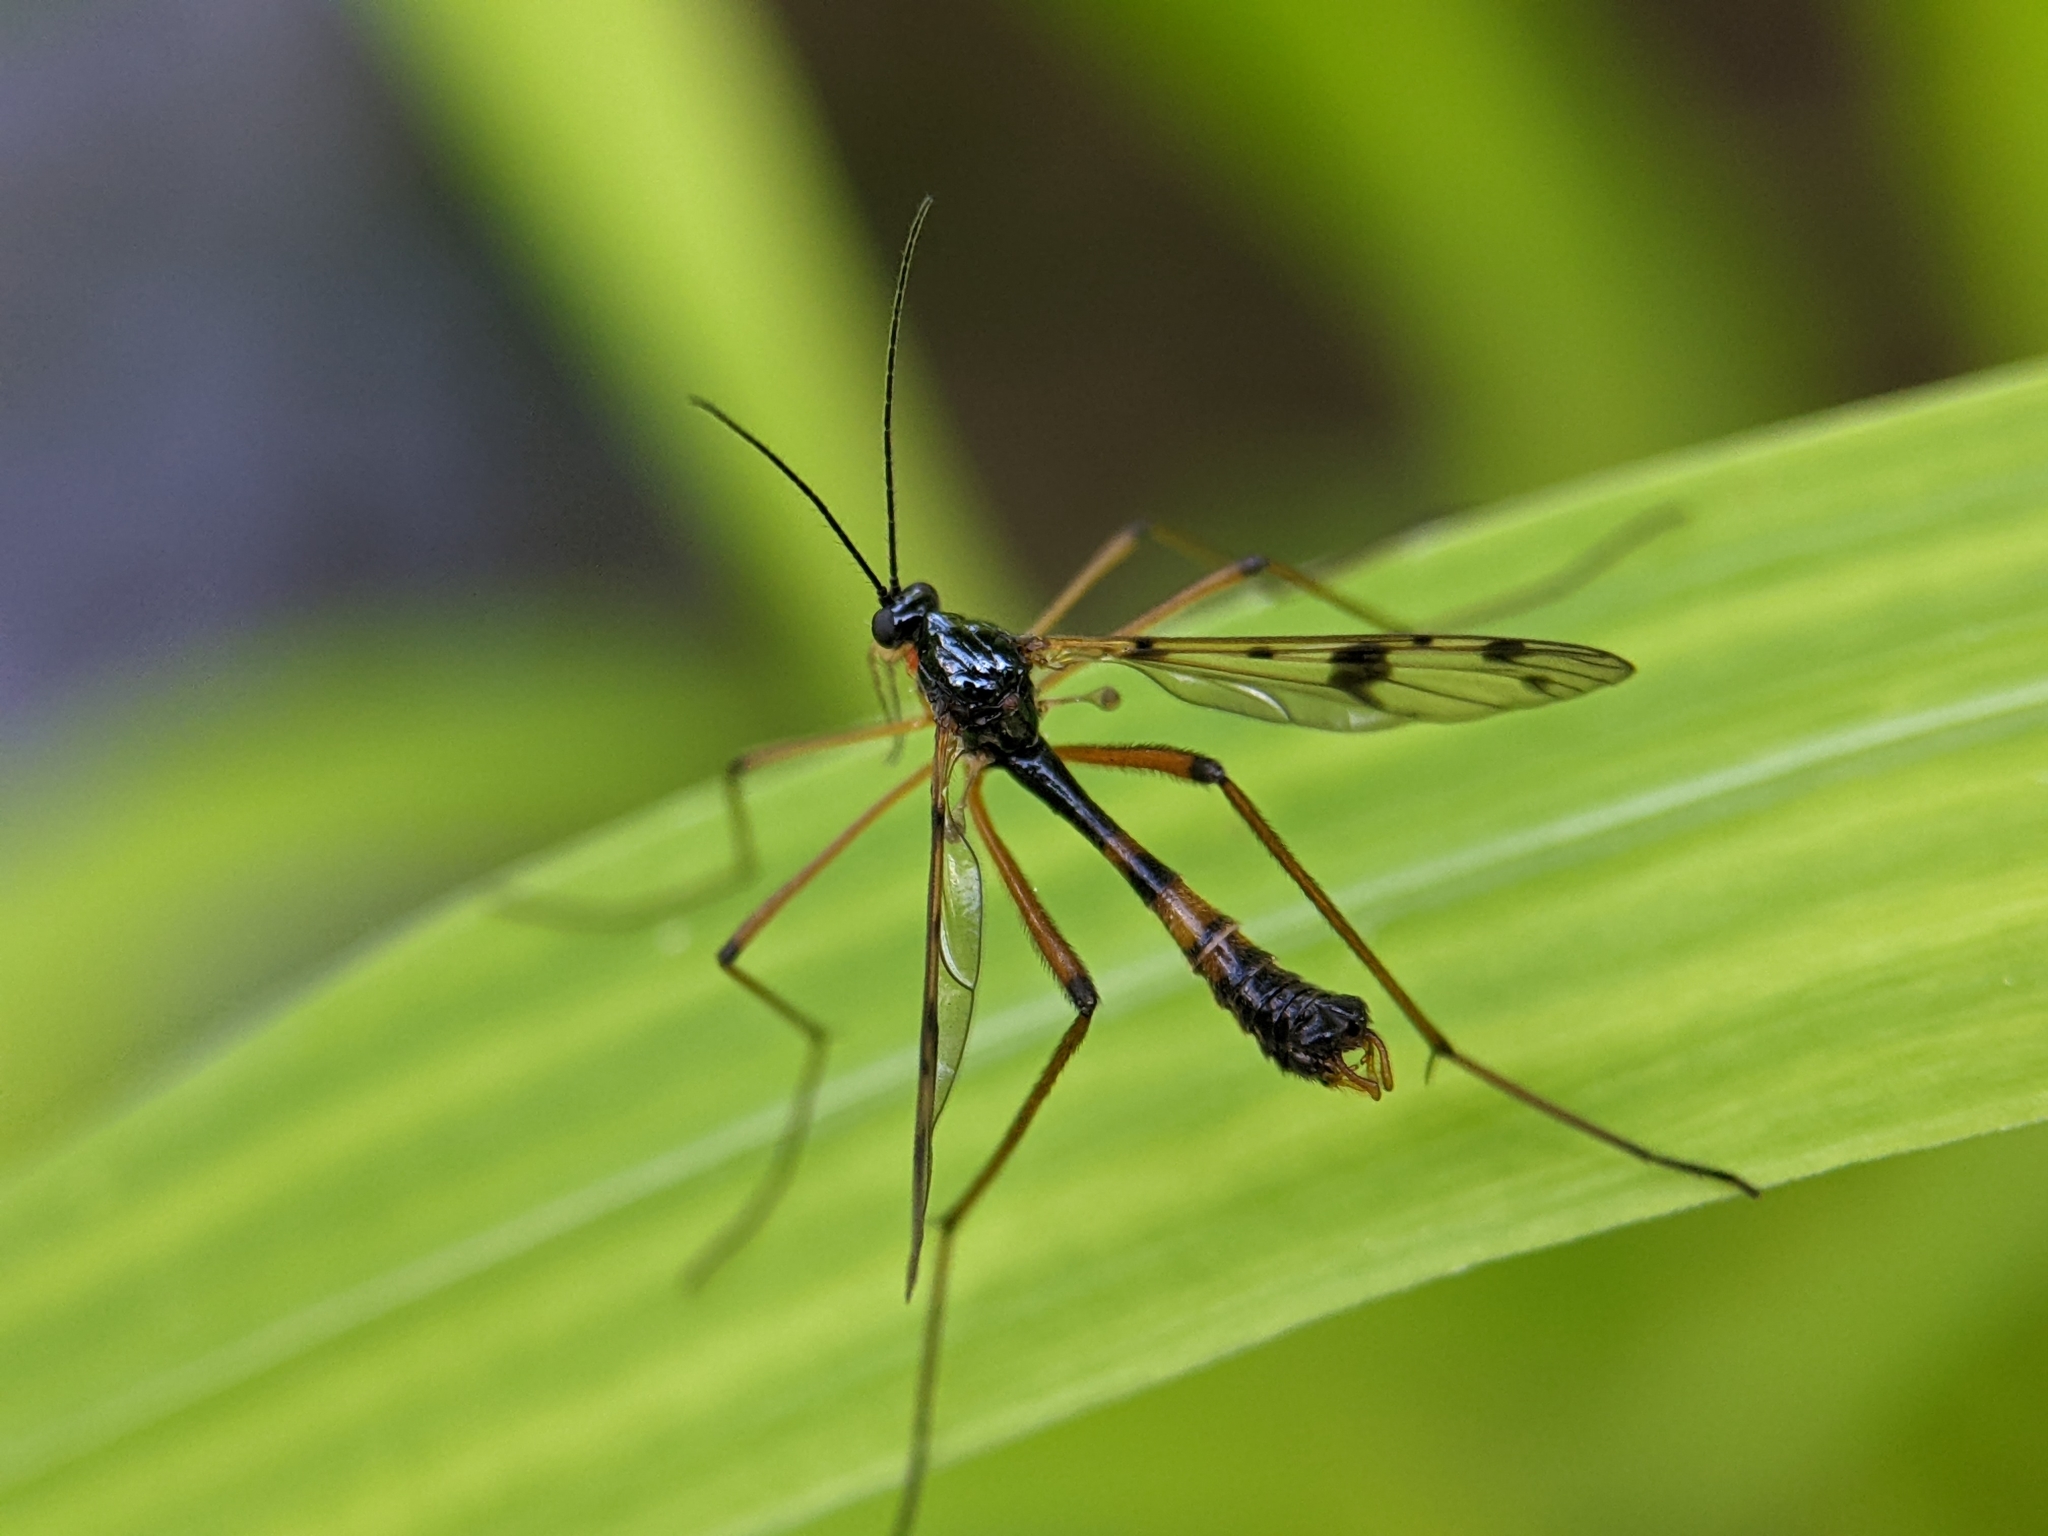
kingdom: Animalia
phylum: Arthropoda
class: Insecta
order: Diptera
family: Ptychopteridae
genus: Ptychoptera
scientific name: Ptychoptera contaminata
